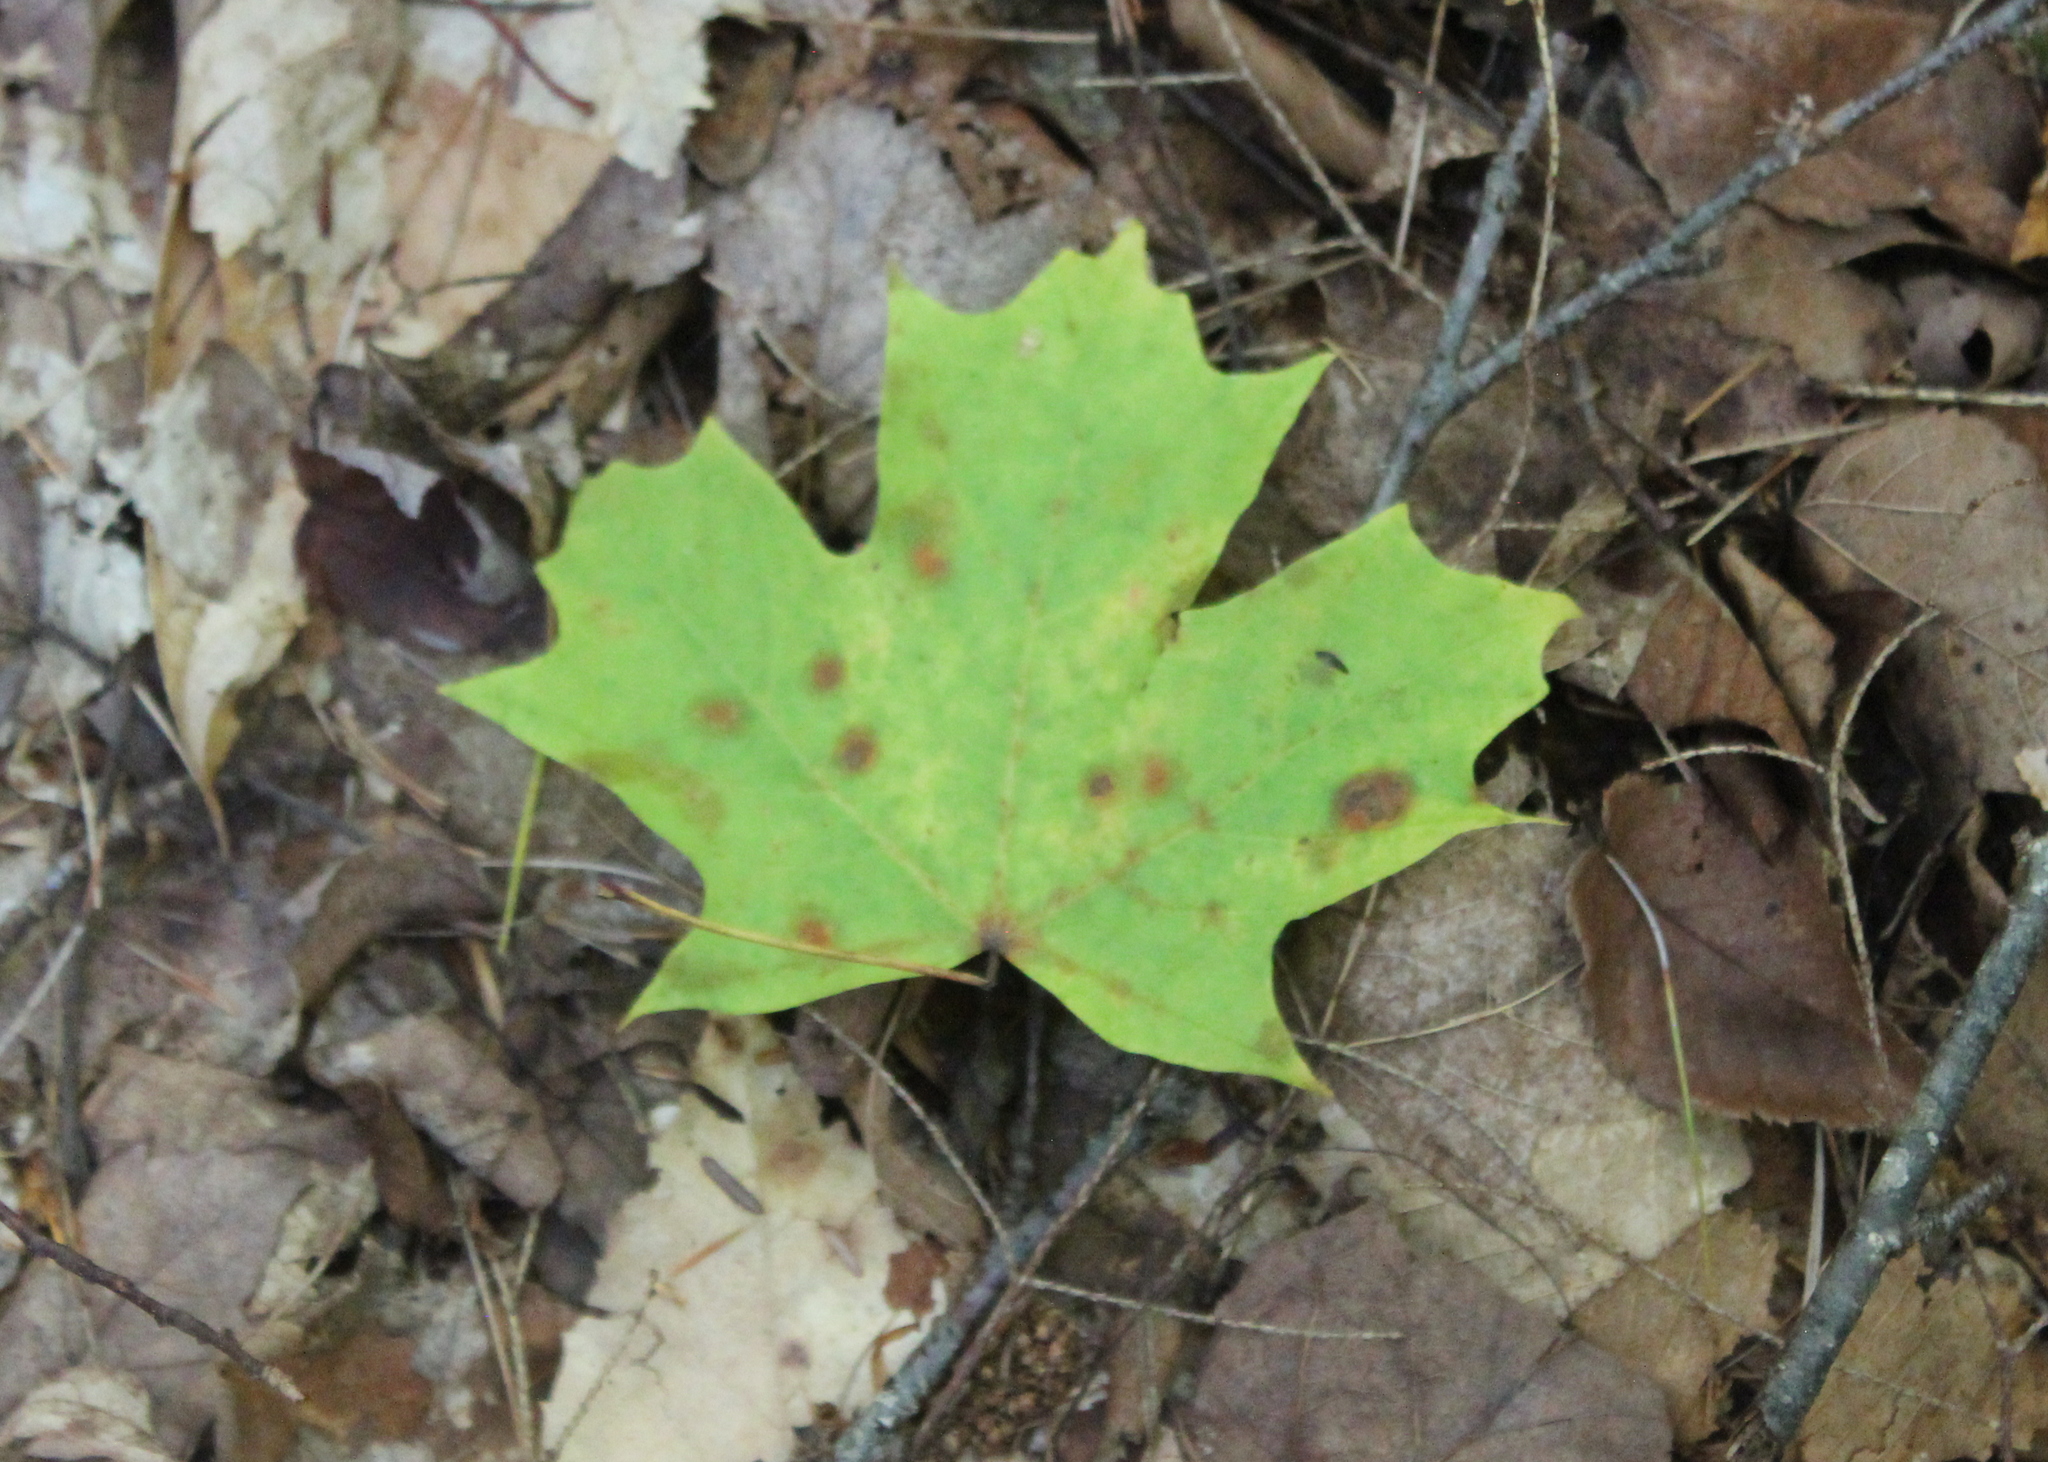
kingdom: Plantae
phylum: Tracheophyta
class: Magnoliopsida
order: Sapindales
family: Sapindaceae
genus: Acer
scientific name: Acer saccharum
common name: Sugar maple
